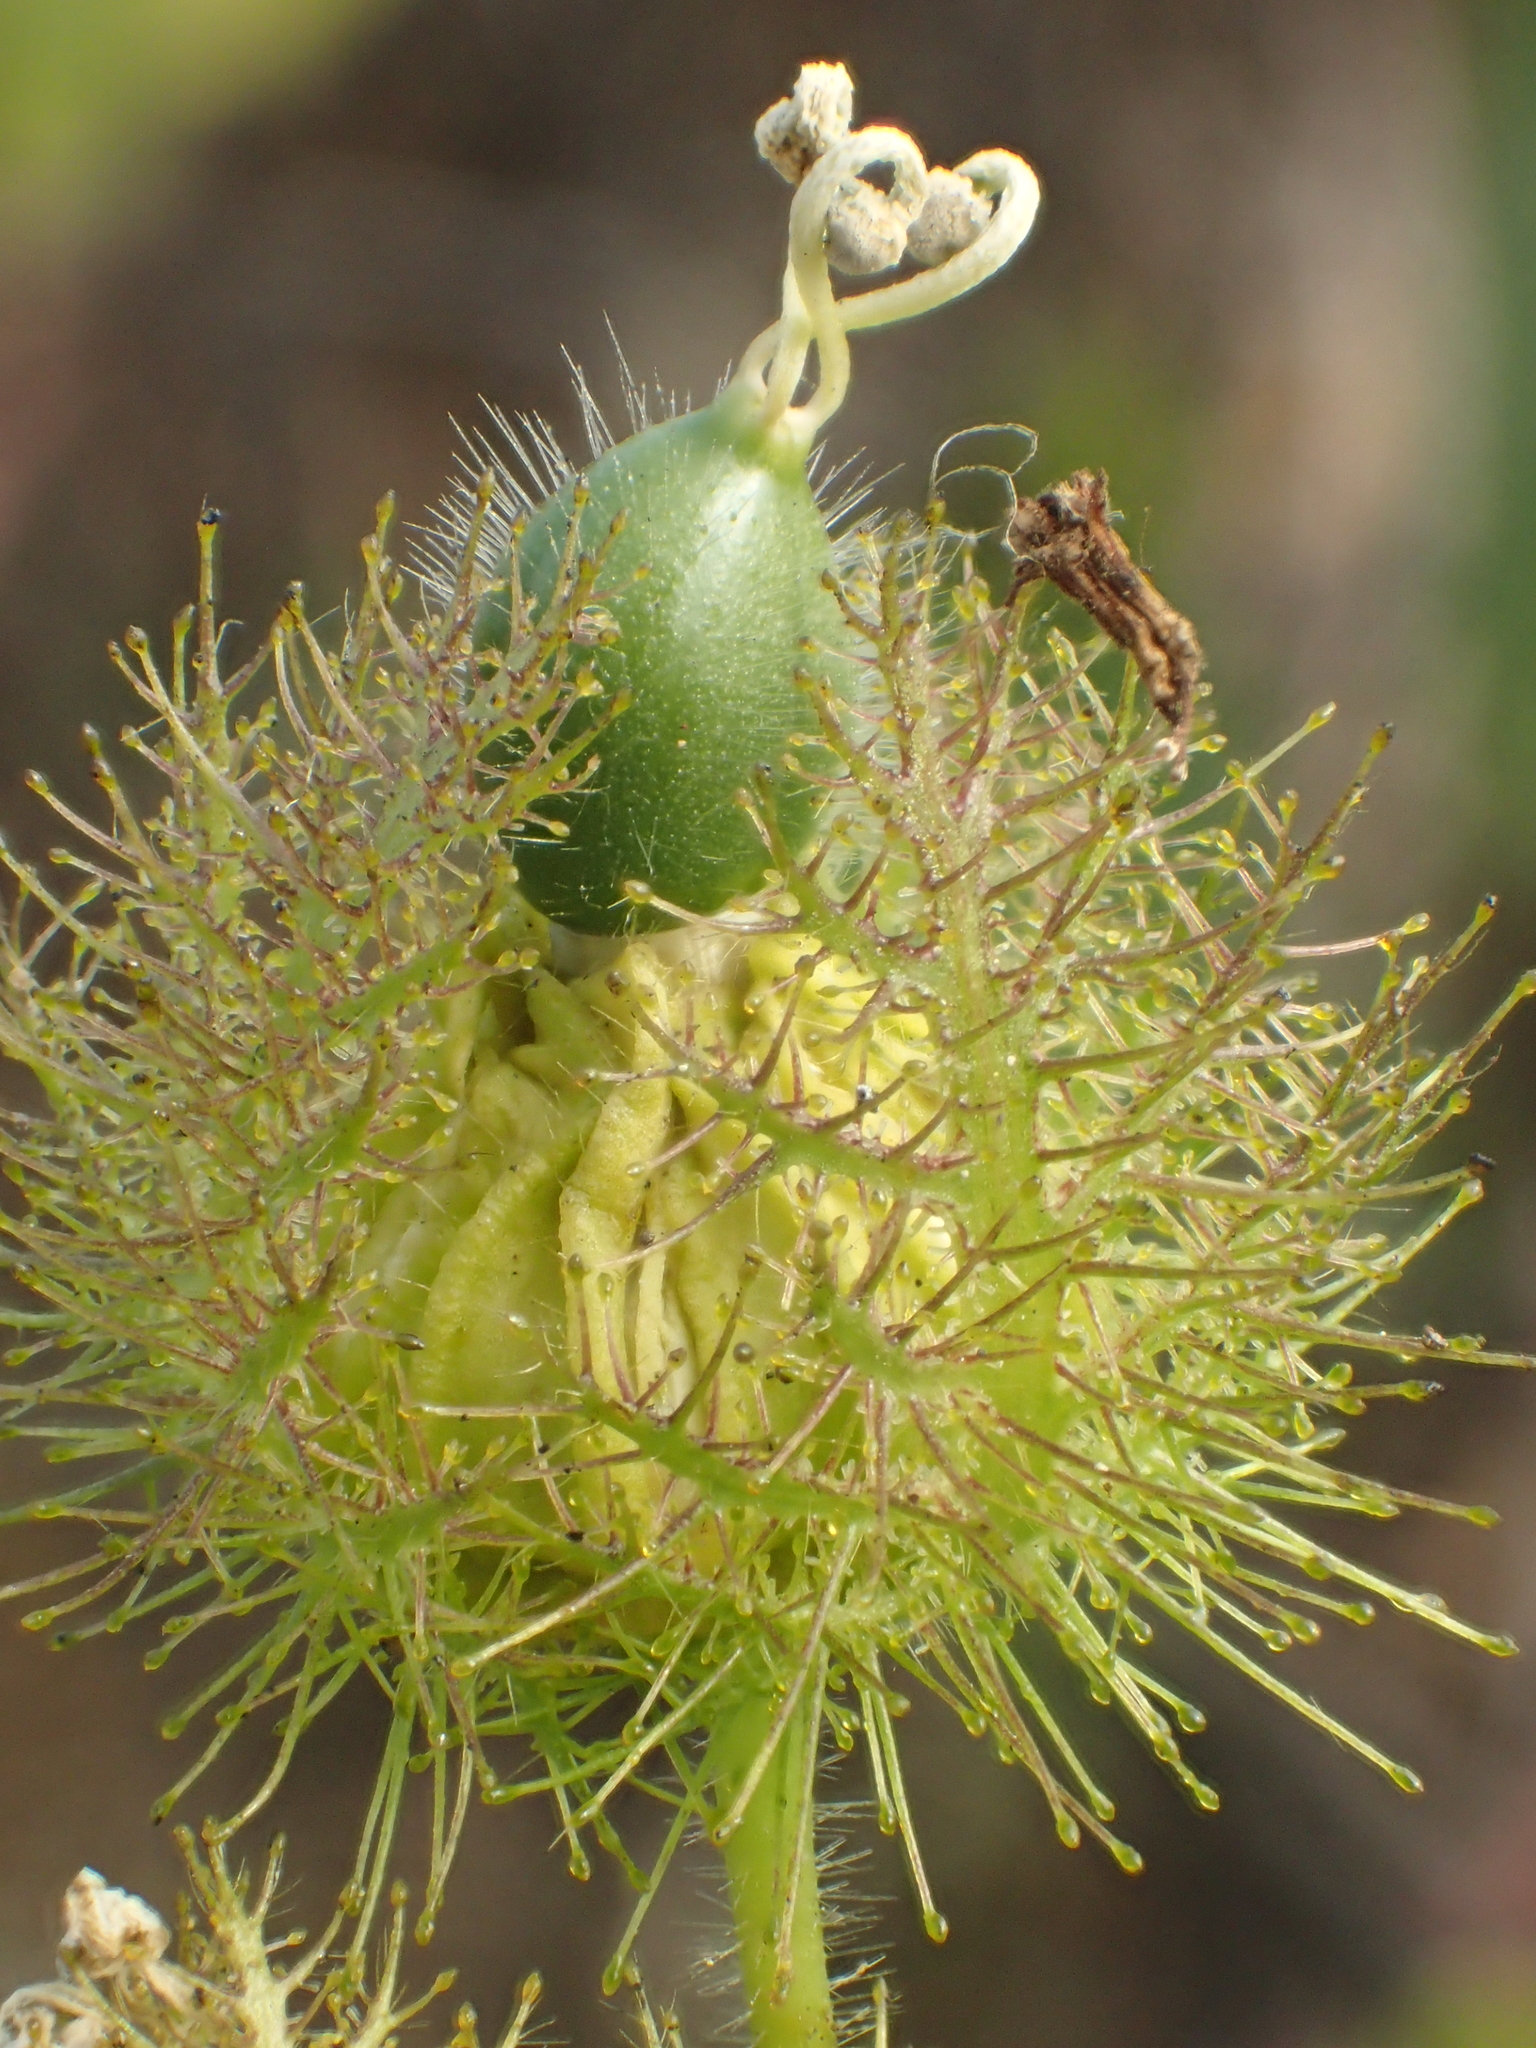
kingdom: Plantae
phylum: Tracheophyta
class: Magnoliopsida
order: Malpighiales
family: Passifloraceae
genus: Passiflora
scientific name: Passiflora vesicaria
